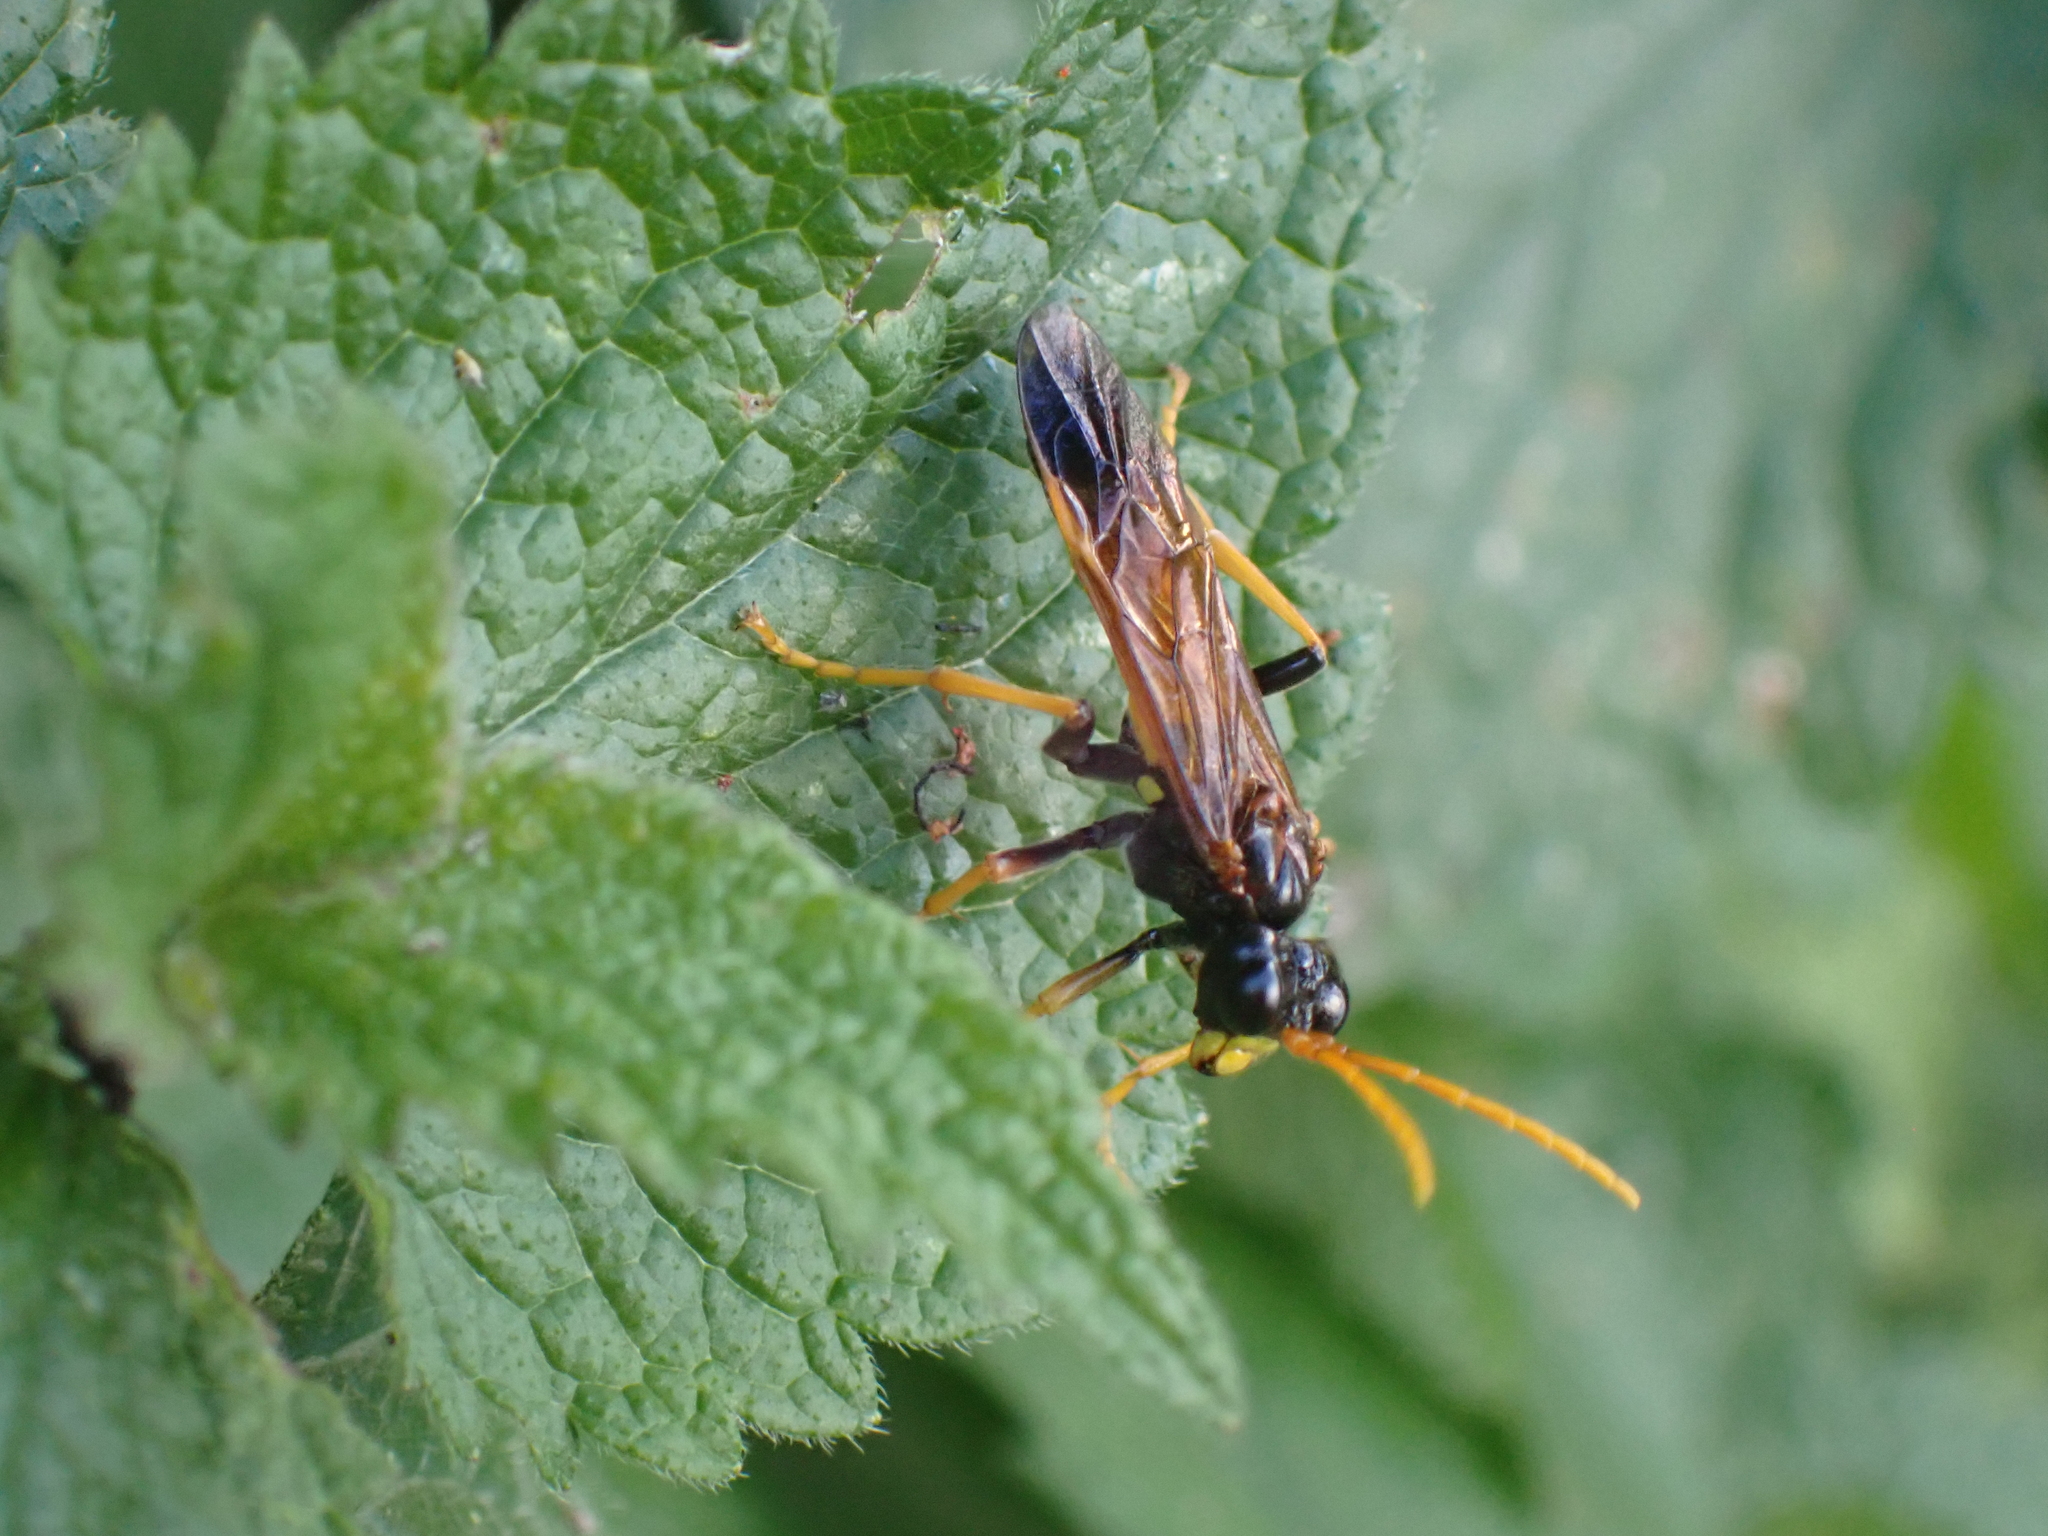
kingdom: Animalia
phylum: Arthropoda
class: Insecta
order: Hymenoptera
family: Tenthredinidae
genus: Tenthredo
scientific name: Tenthredo campestris
